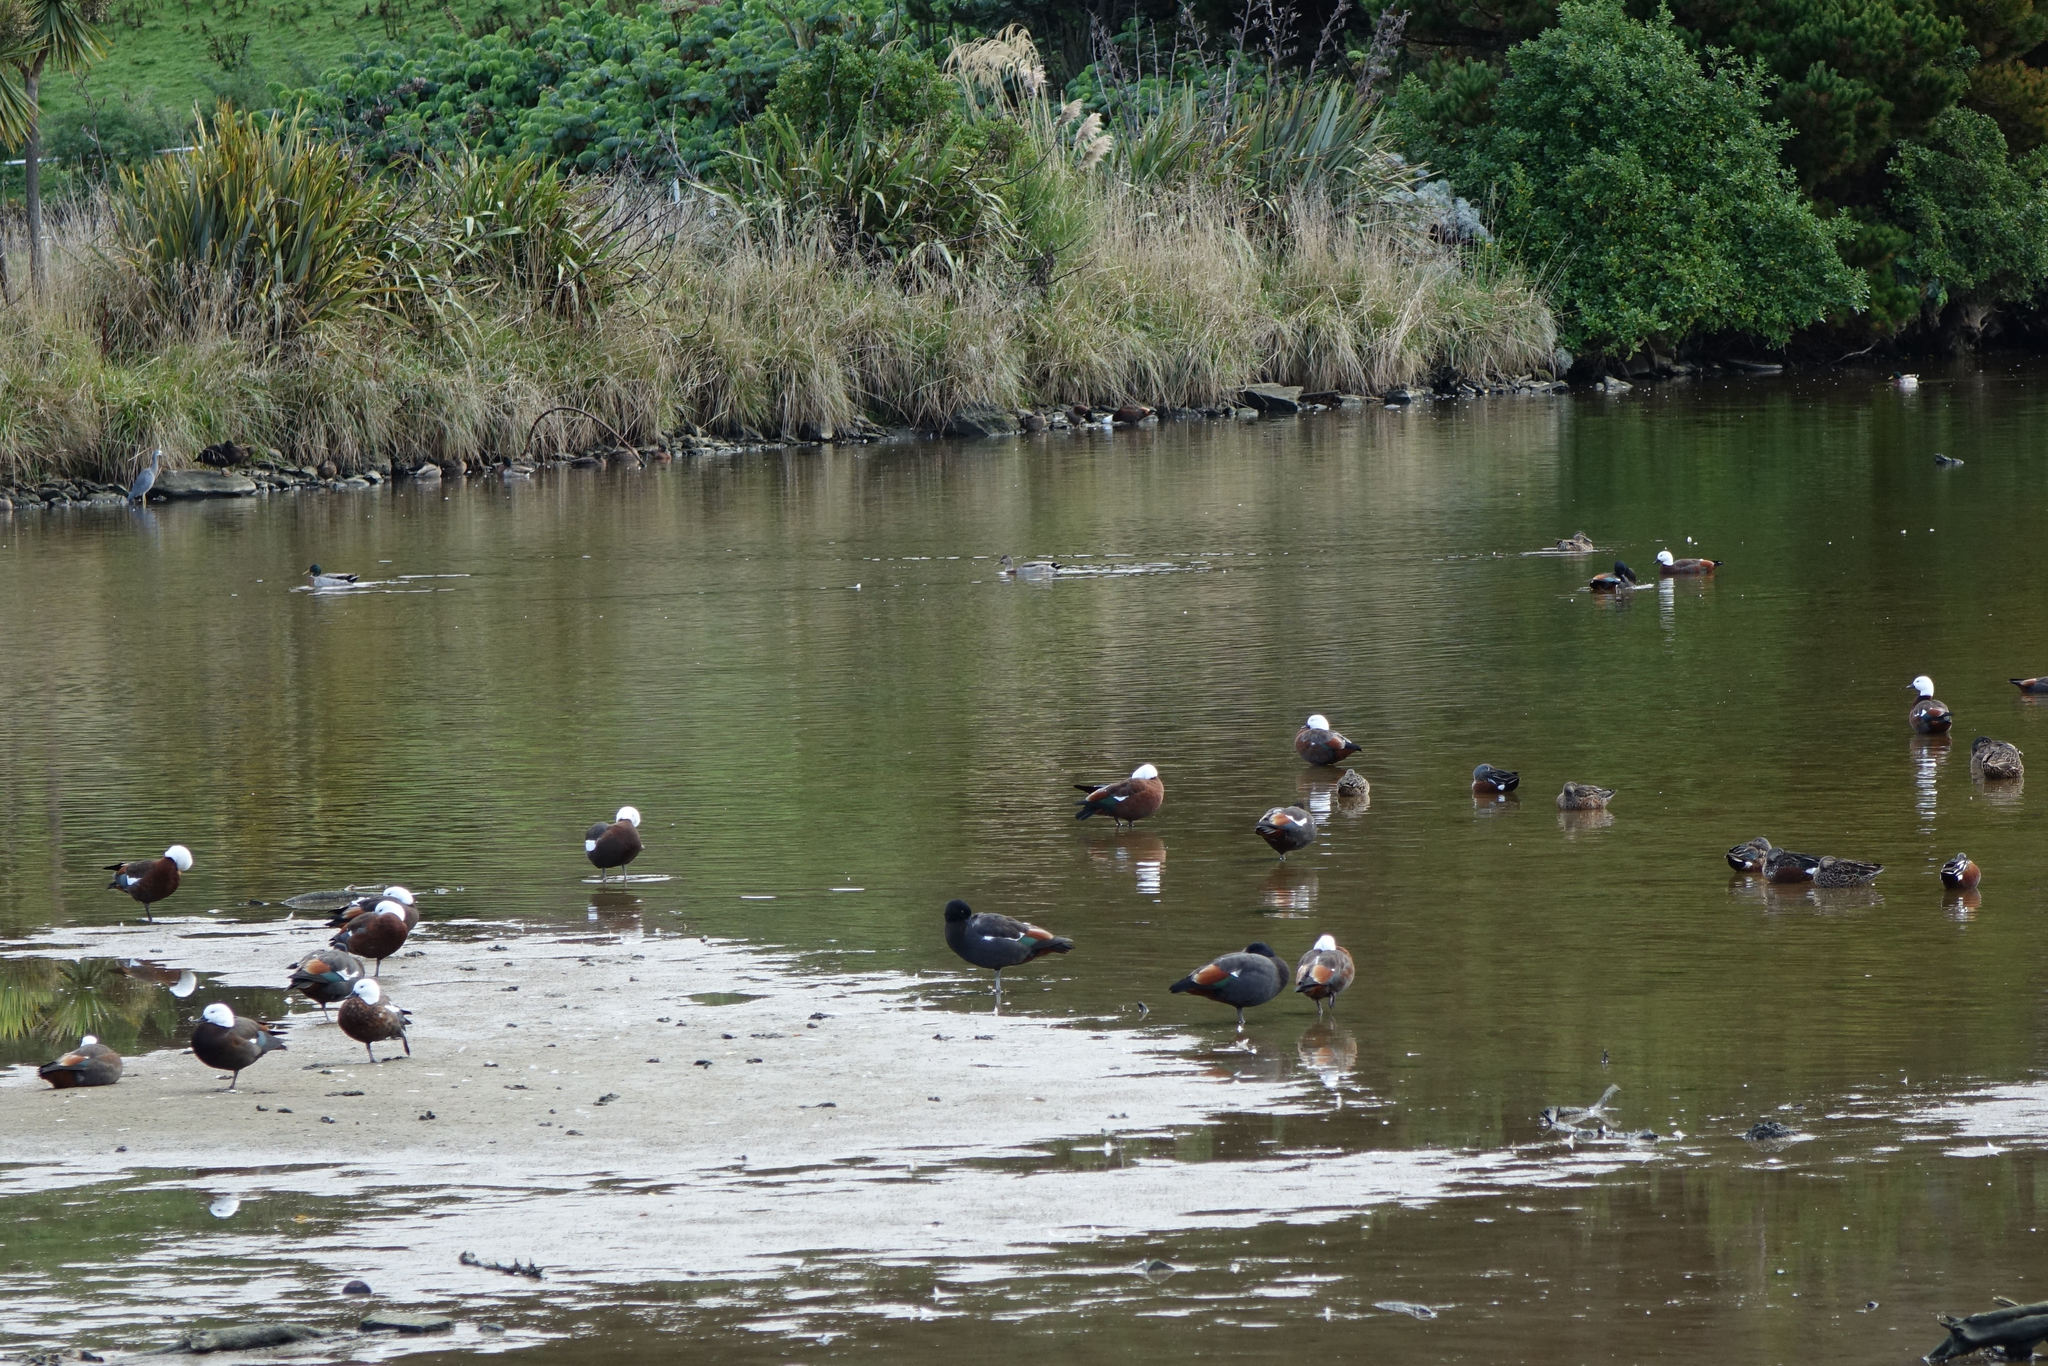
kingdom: Animalia
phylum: Chordata
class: Aves
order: Anseriformes
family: Anatidae
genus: Tadorna
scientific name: Tadorna variegata
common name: Paradise shelduck
